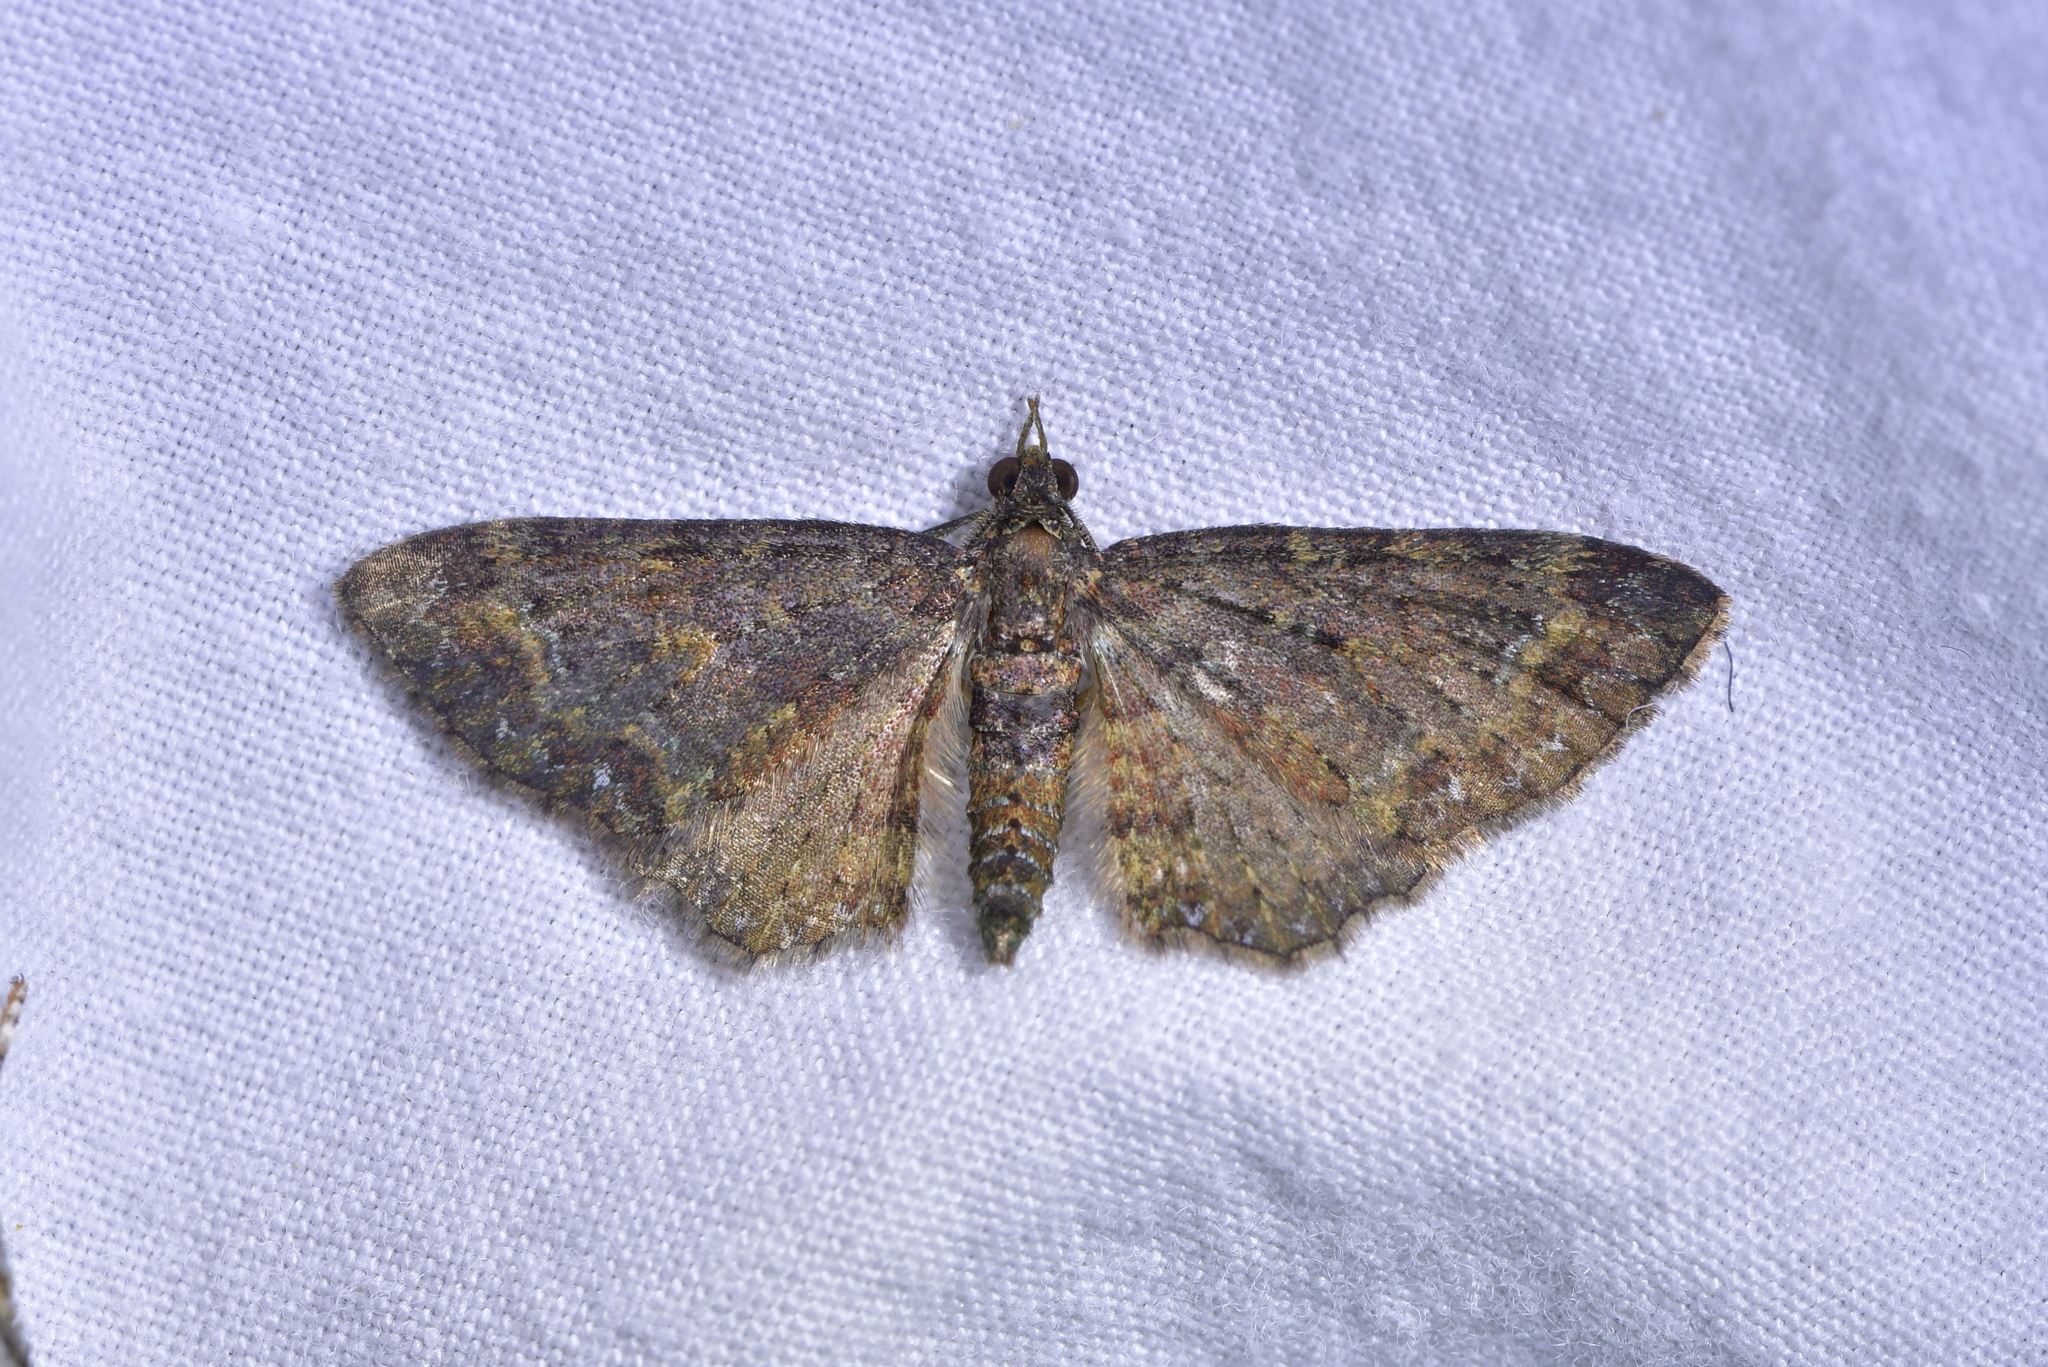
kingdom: Animalia
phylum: Arthropoda
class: Insecta
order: Lepidoptera
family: Geometridae
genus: Pasiphila
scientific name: Pasiphila lunata
